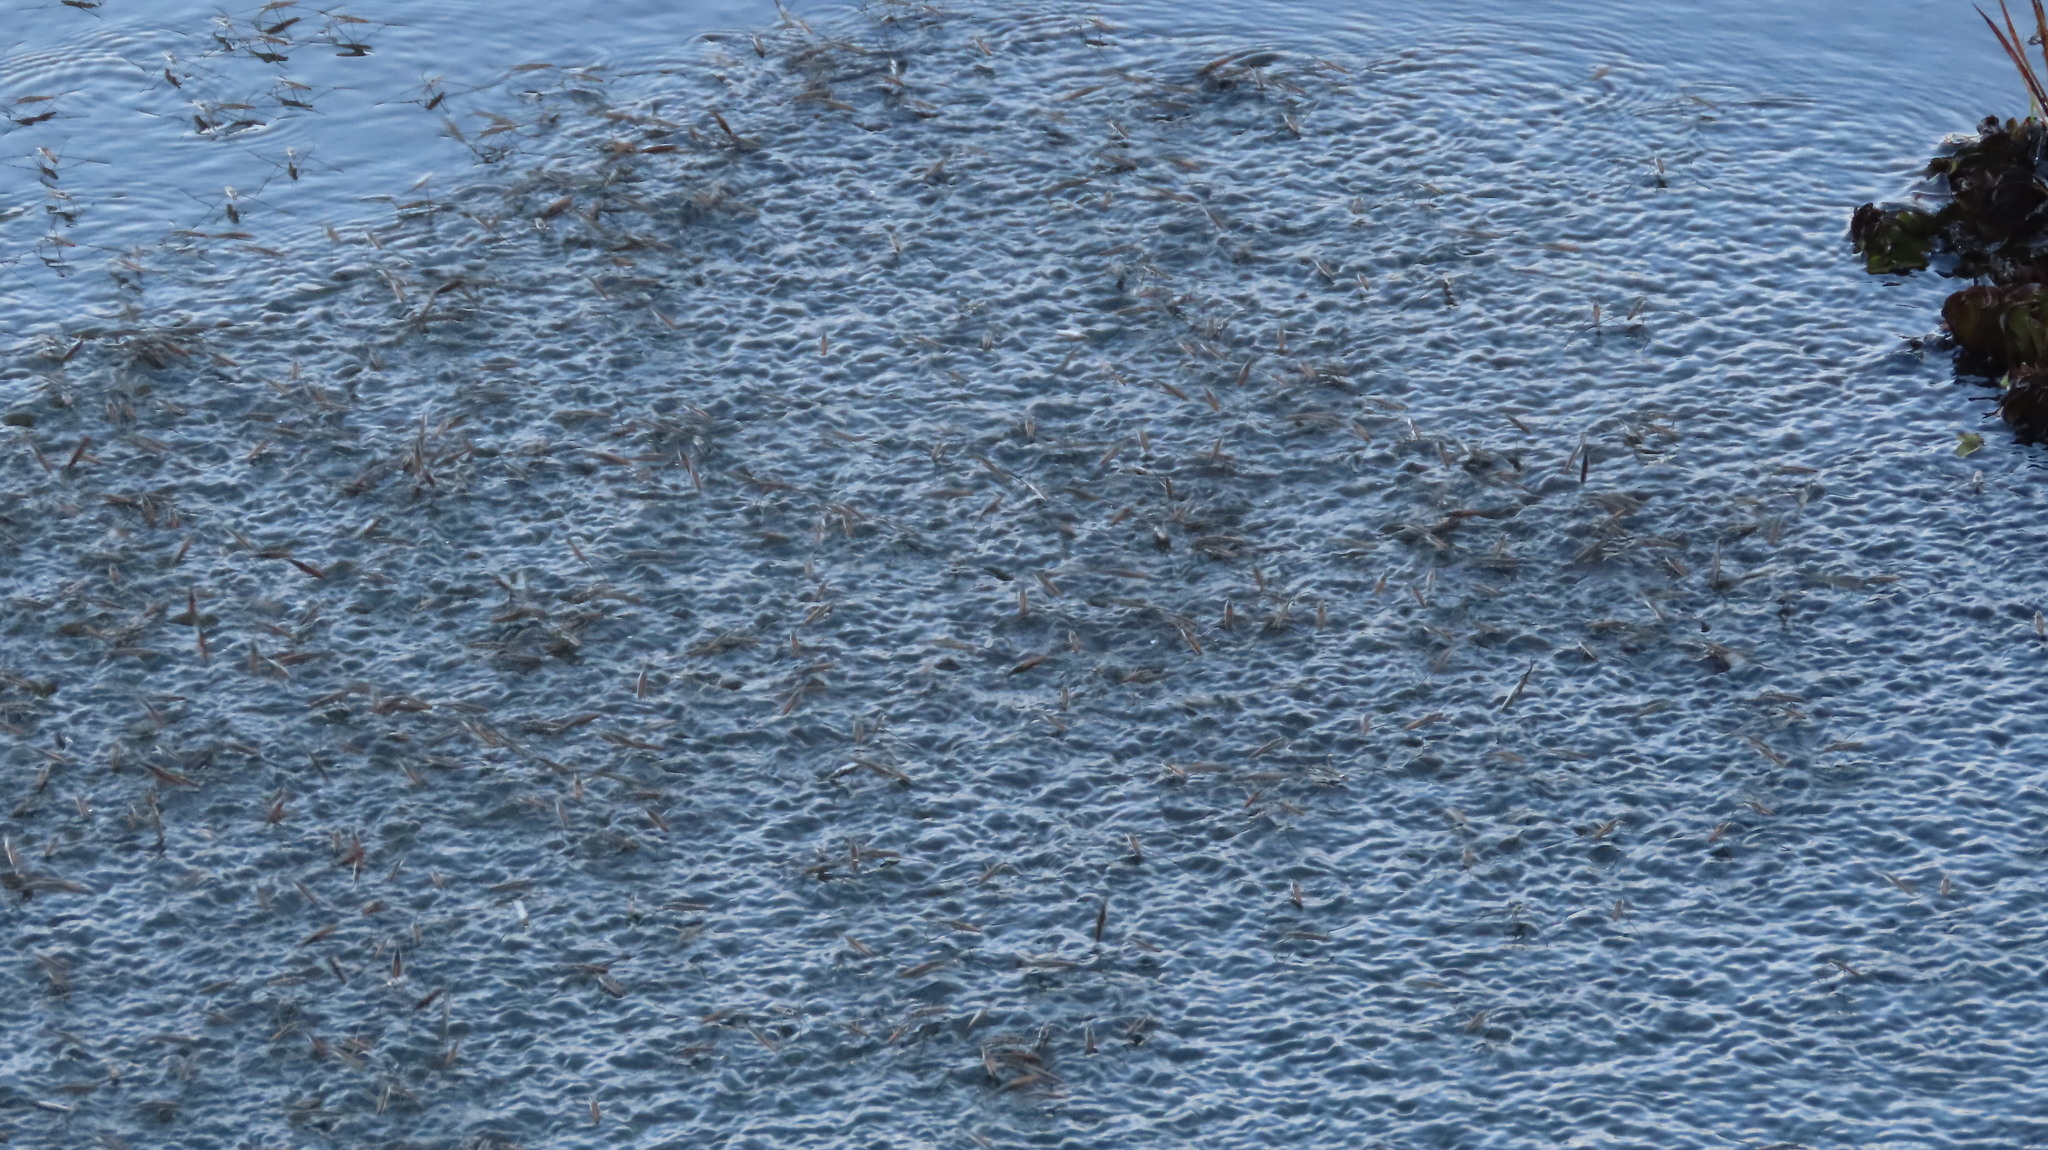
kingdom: Animalia
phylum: Arthropoda
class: Insecta
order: Hemiptera
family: Gerridae
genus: Aquarius
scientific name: Aquarius adelaidis
